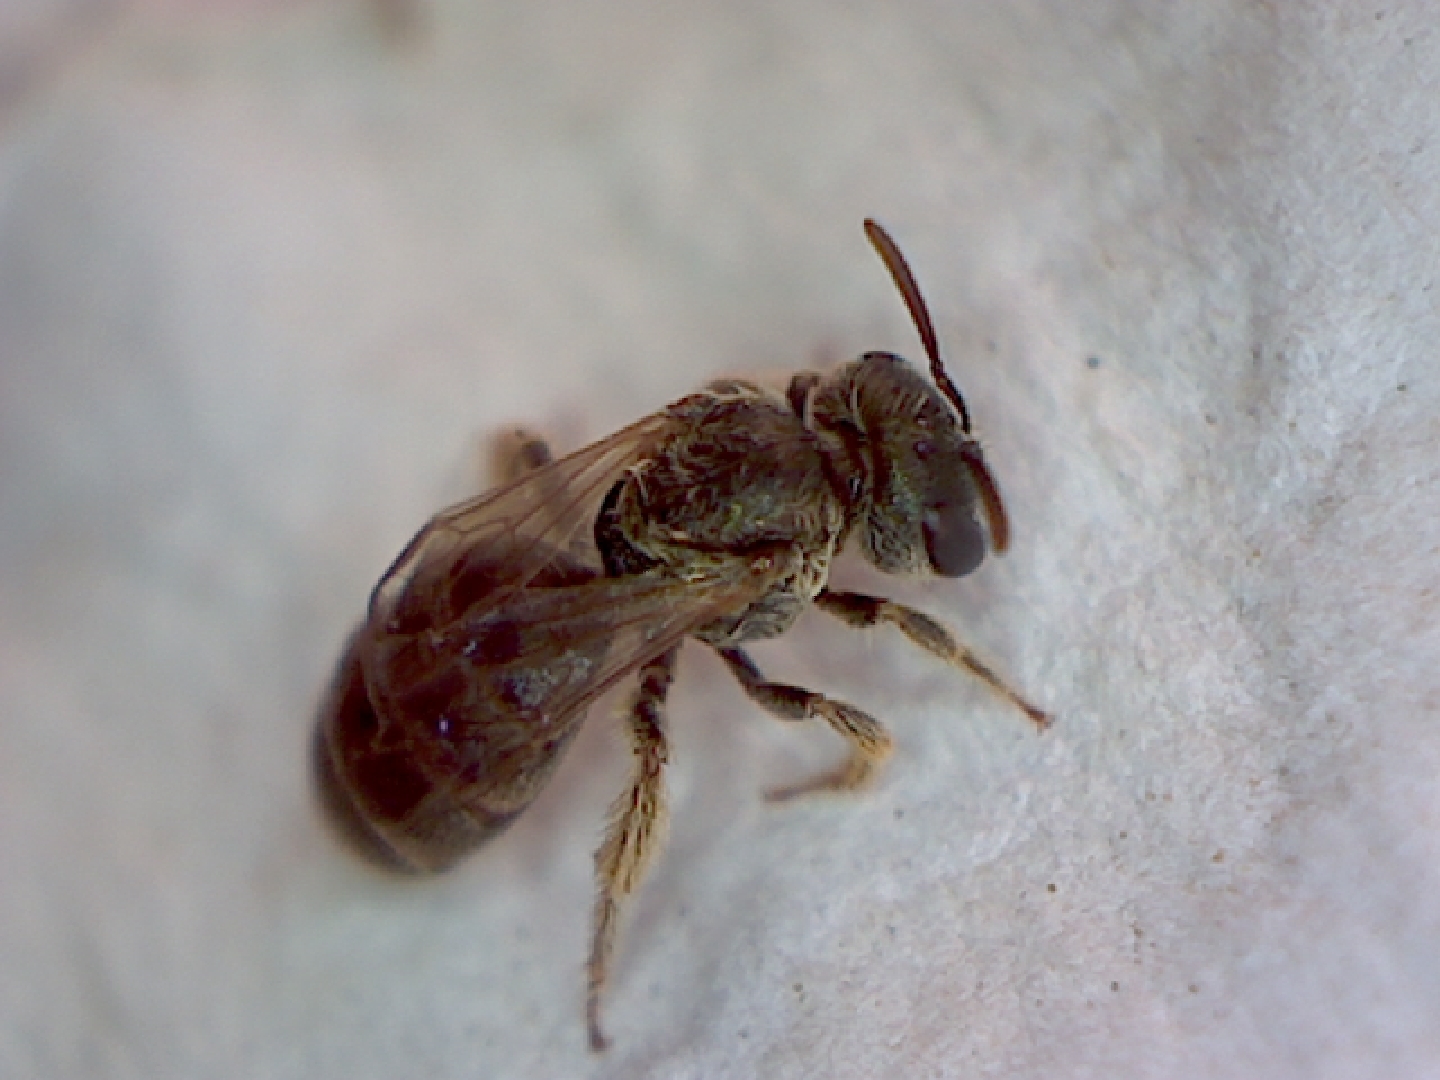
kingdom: Animalia
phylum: Arthropoda
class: Insecta
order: Hymenoptera
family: Halictidae
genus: Halictus
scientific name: Halictus tripartitus
